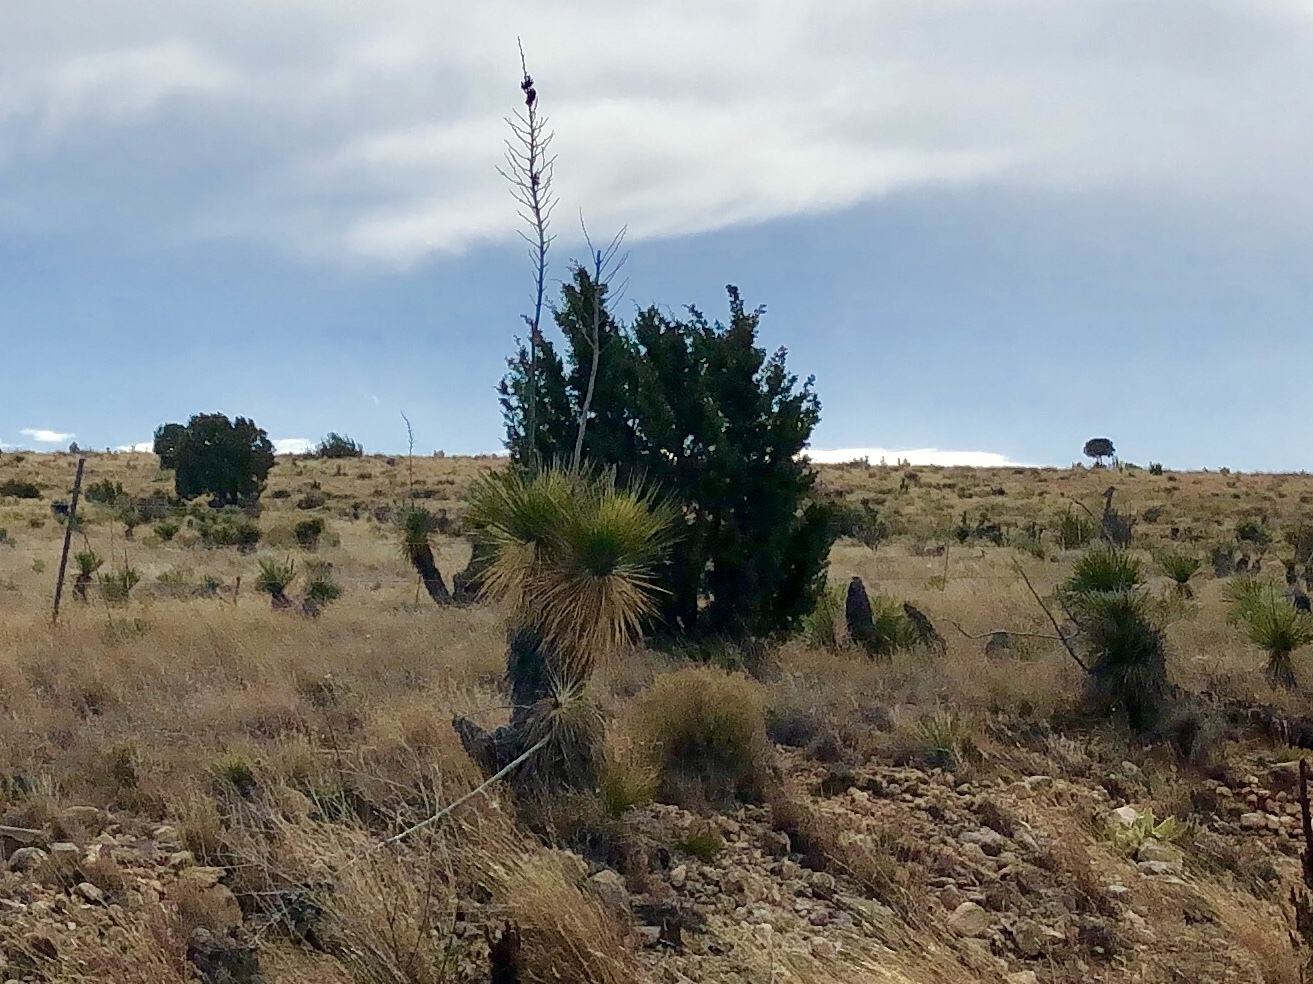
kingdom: Plantae
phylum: Tracheophyta
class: Liliopsida
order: Asparagales
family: Asparagaceae
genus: Yucca
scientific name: Yucca elata
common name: Palmella
